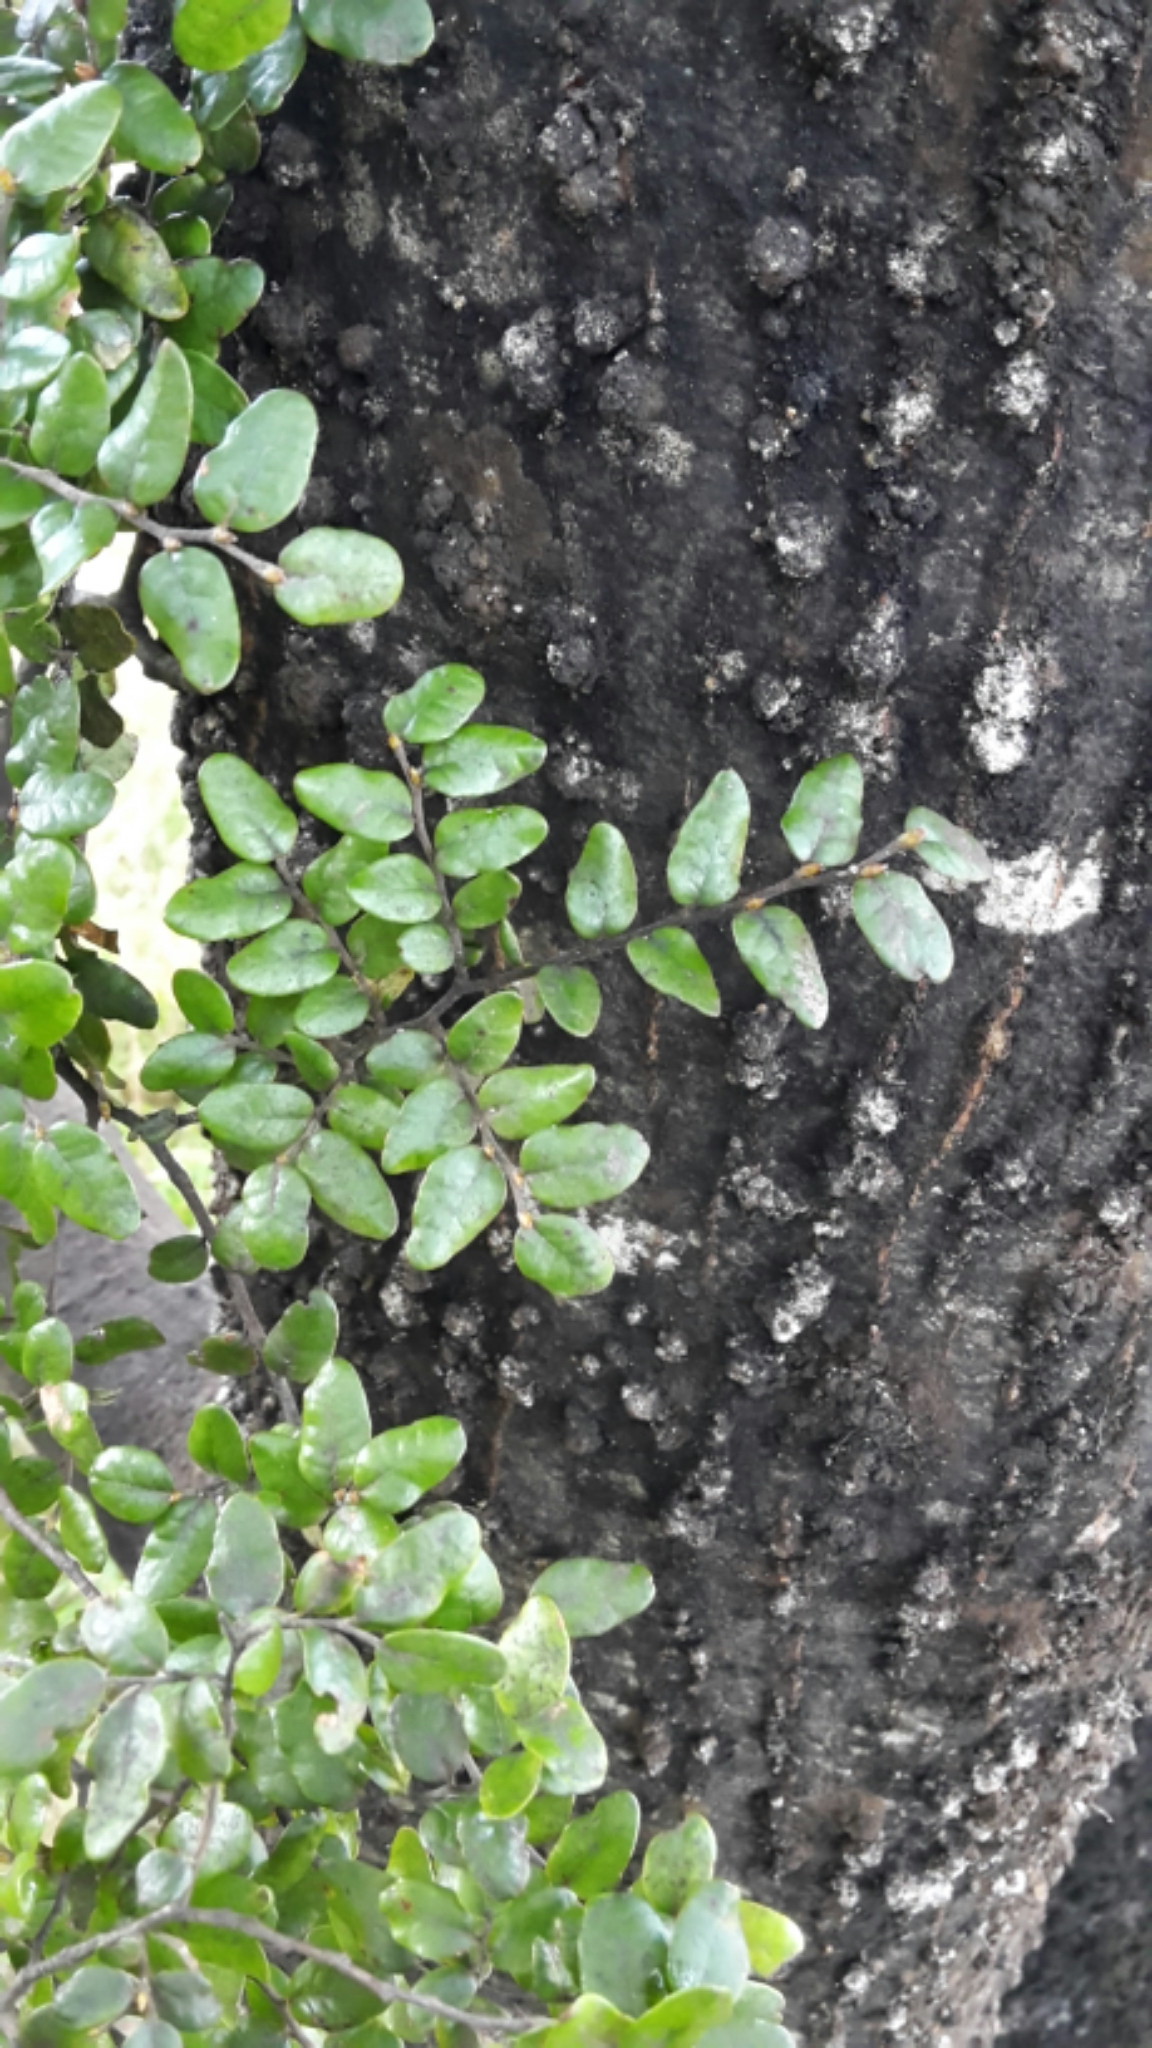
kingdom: Plantae
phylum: Tracheophyta
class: Magnoliopsida
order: Fagales
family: Nothofagaceae
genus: Nothofagus
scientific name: Nothofagus solandri
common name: Black beech
